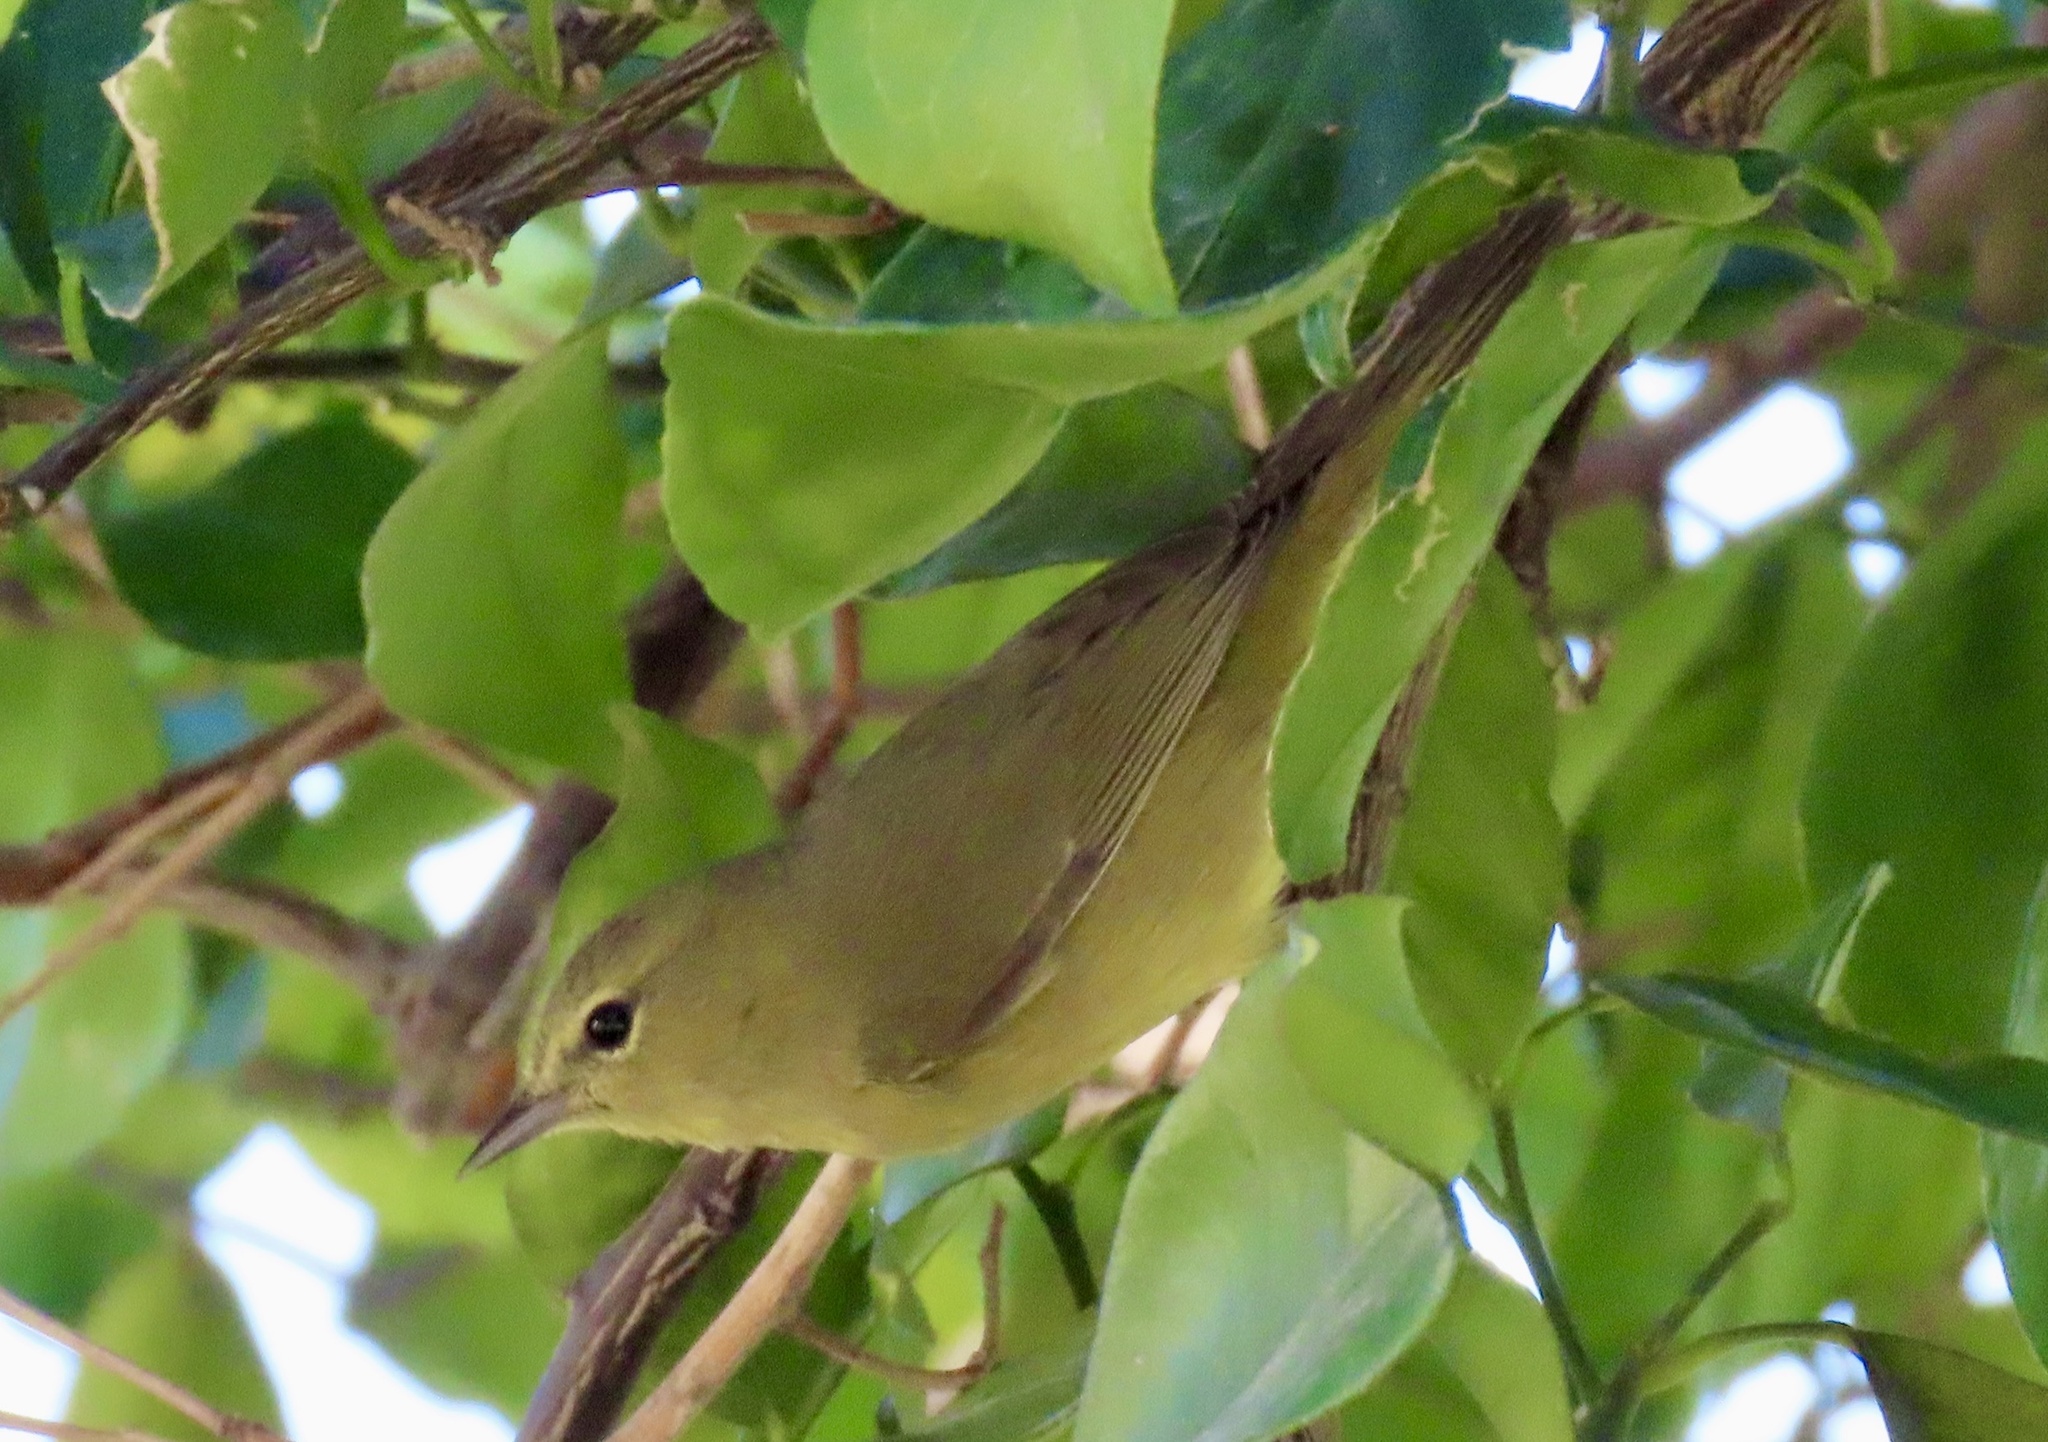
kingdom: Animalia
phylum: Chordata
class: Aves
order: Passeriformes
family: Parulidae
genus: Leiothlypis
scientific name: Leiothlypis celata
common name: Orange-crowned warbler
